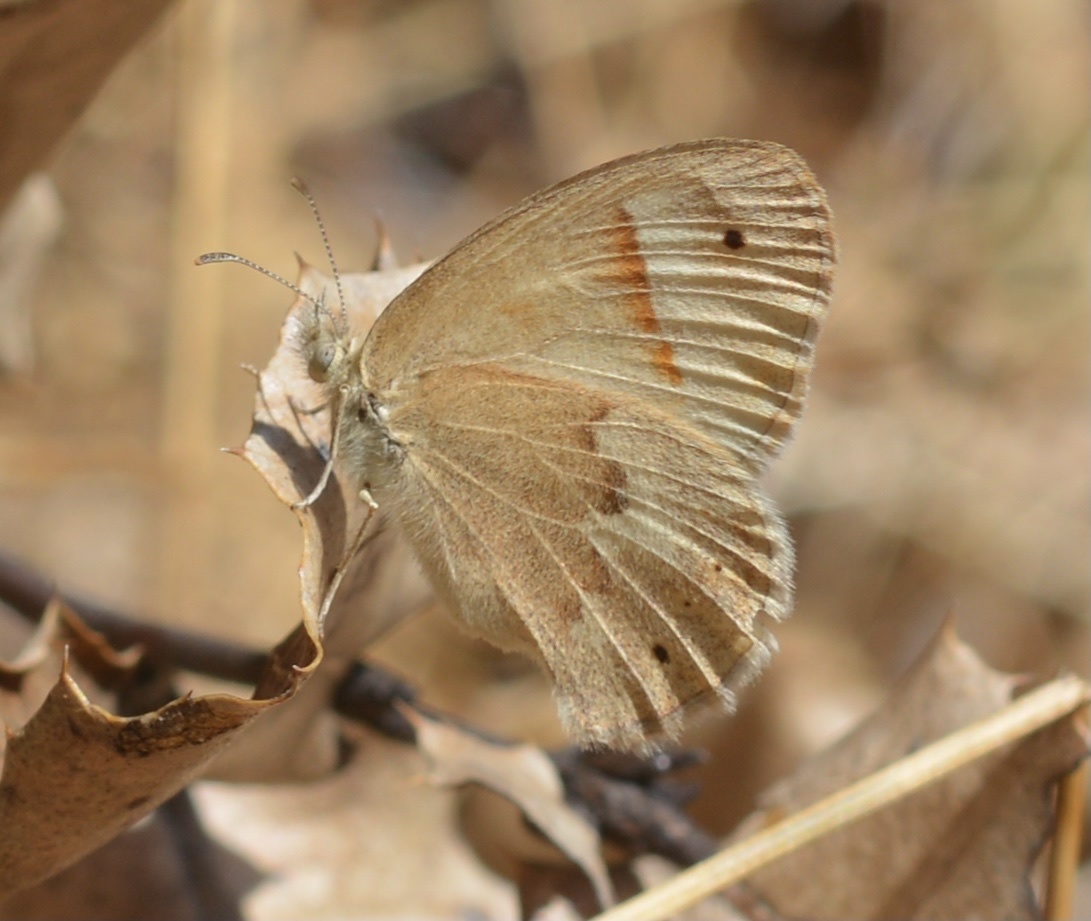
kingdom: Animalia
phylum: Arthropoda
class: Insecta
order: Lepidoptera
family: Nymphalidae
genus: Coenonympha
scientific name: Coenonympha california
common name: Common ringlet
